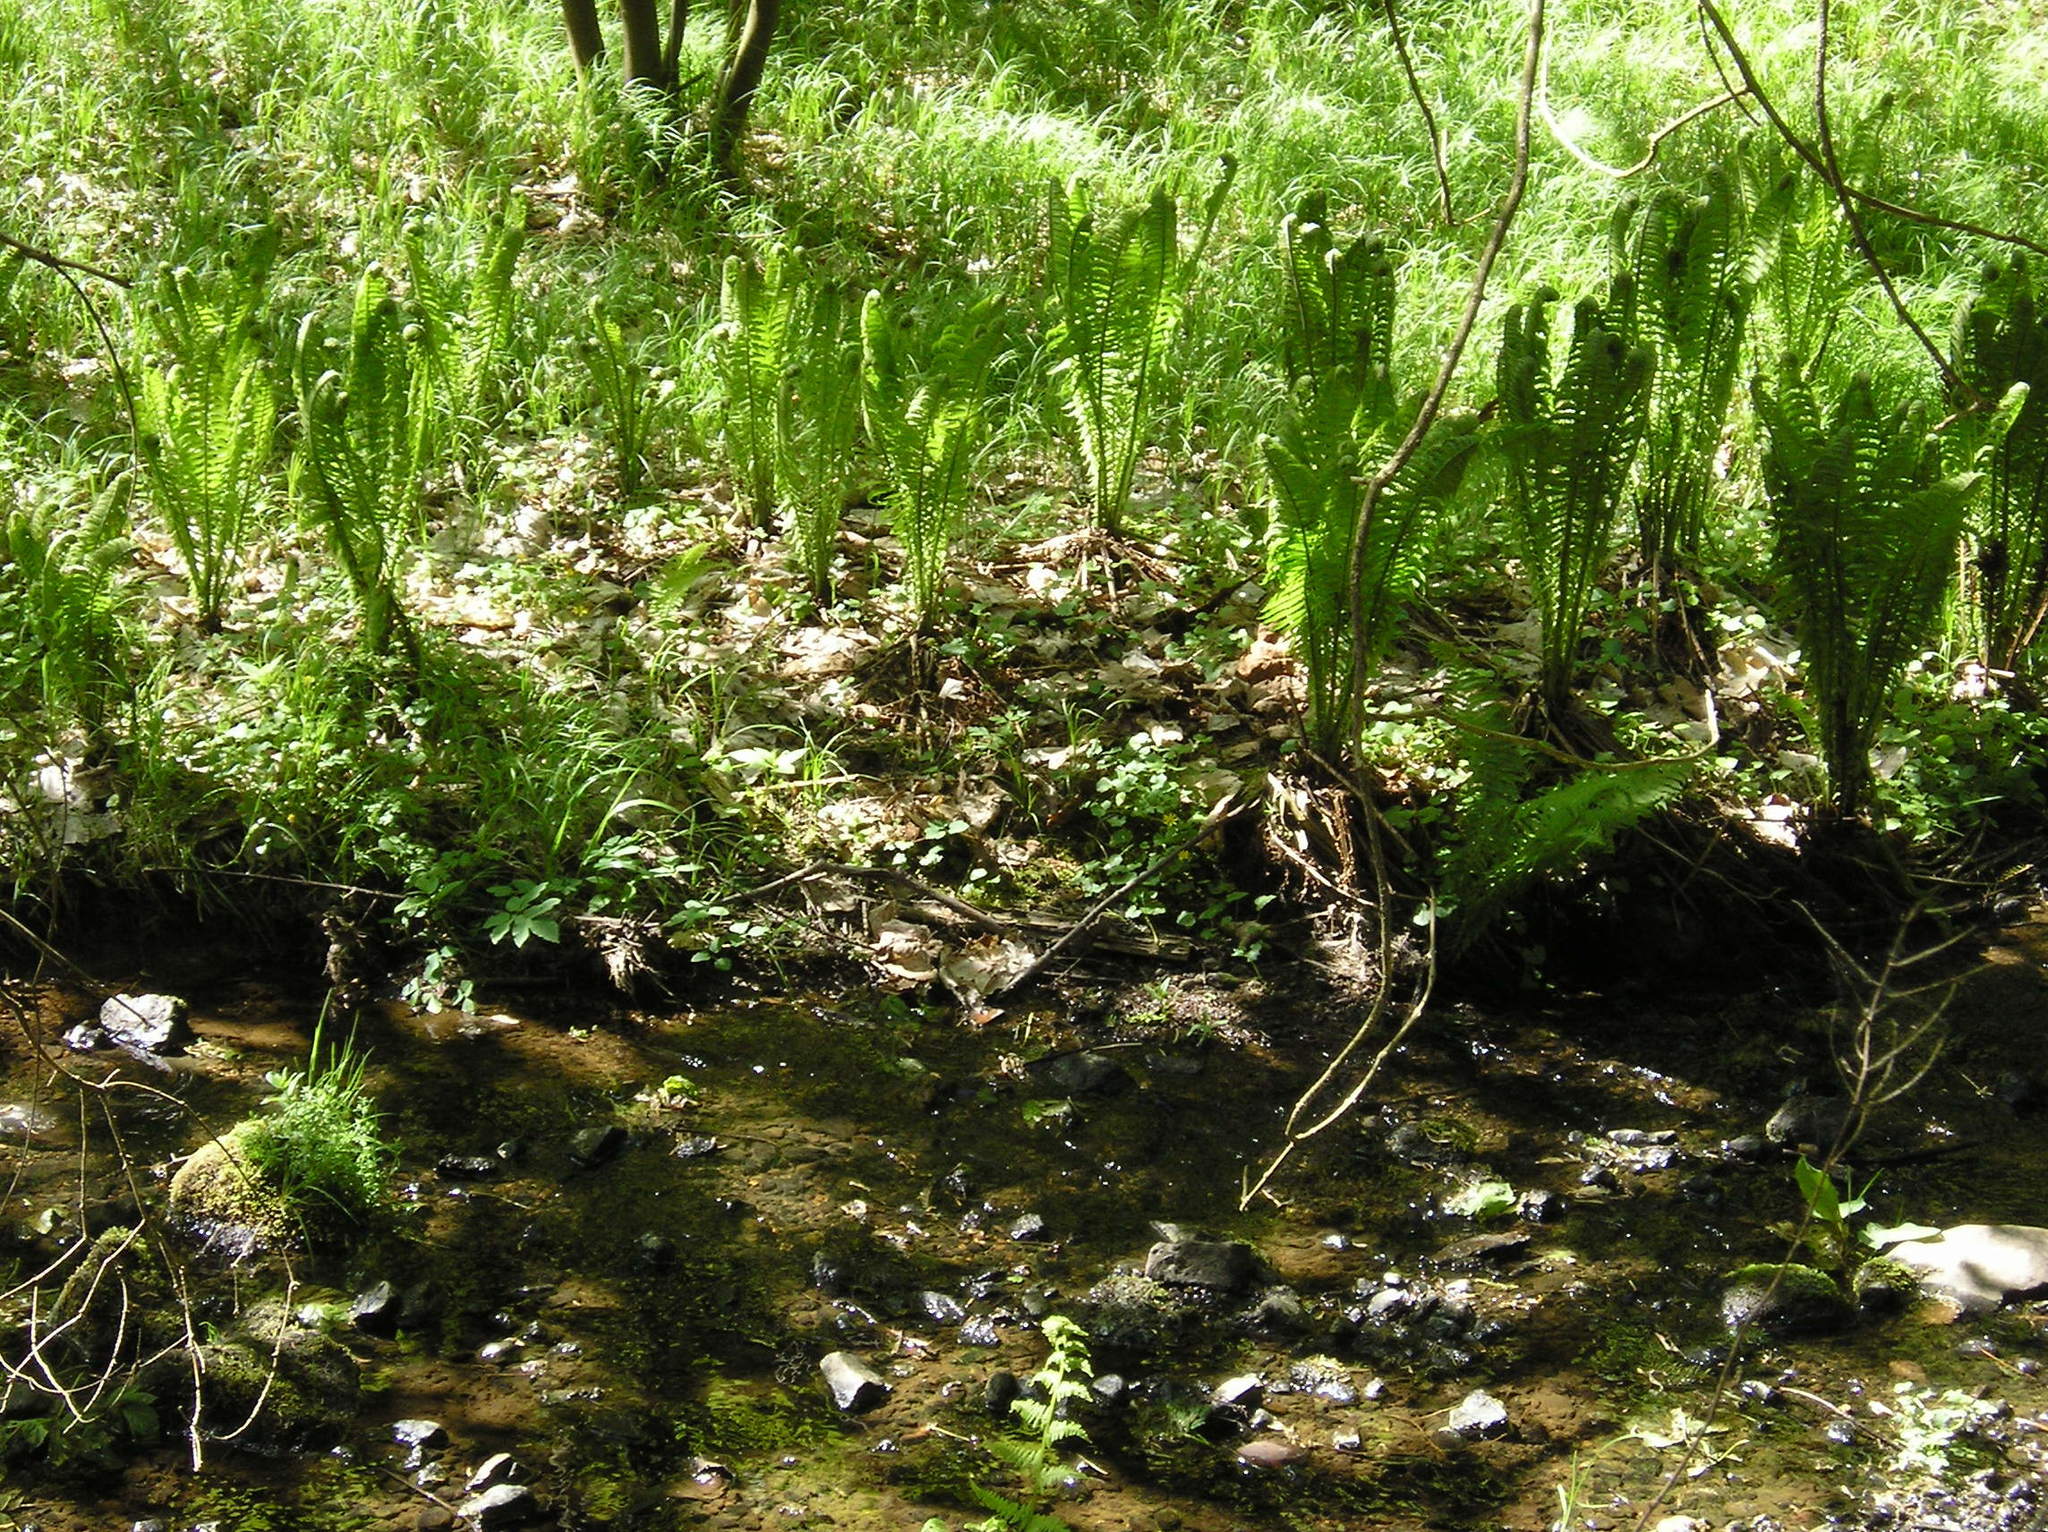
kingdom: Plantae
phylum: Tracheophyta
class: Polypodiopsida
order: Polypodiales
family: Onocleaceae
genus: Matteuccia
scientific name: Matteuccia struthiopteris
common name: Ostrich fern
